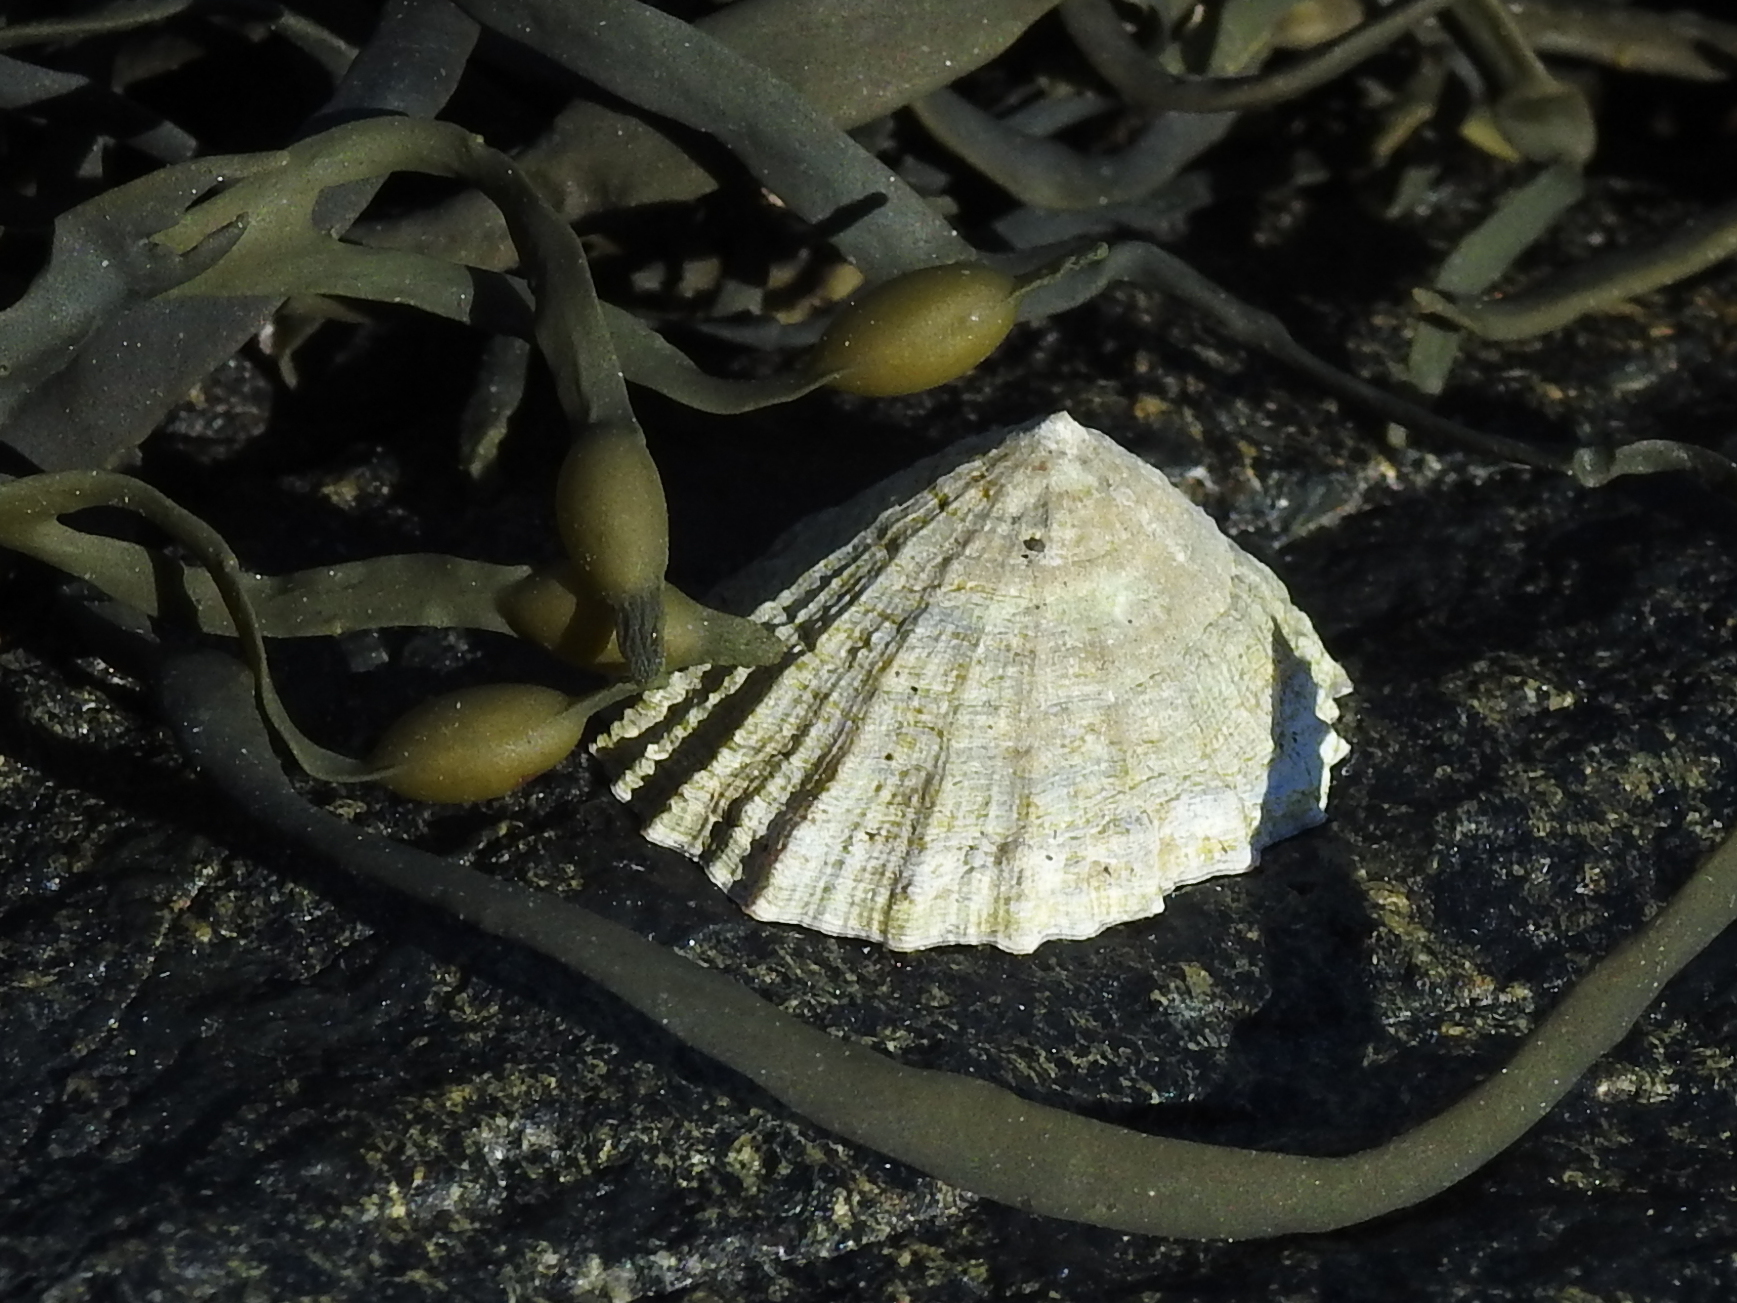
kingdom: Animalia
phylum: Mollusca
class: Gastropoda
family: Patellidae
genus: Patella
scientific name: Patella vulgata
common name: Common limpet
